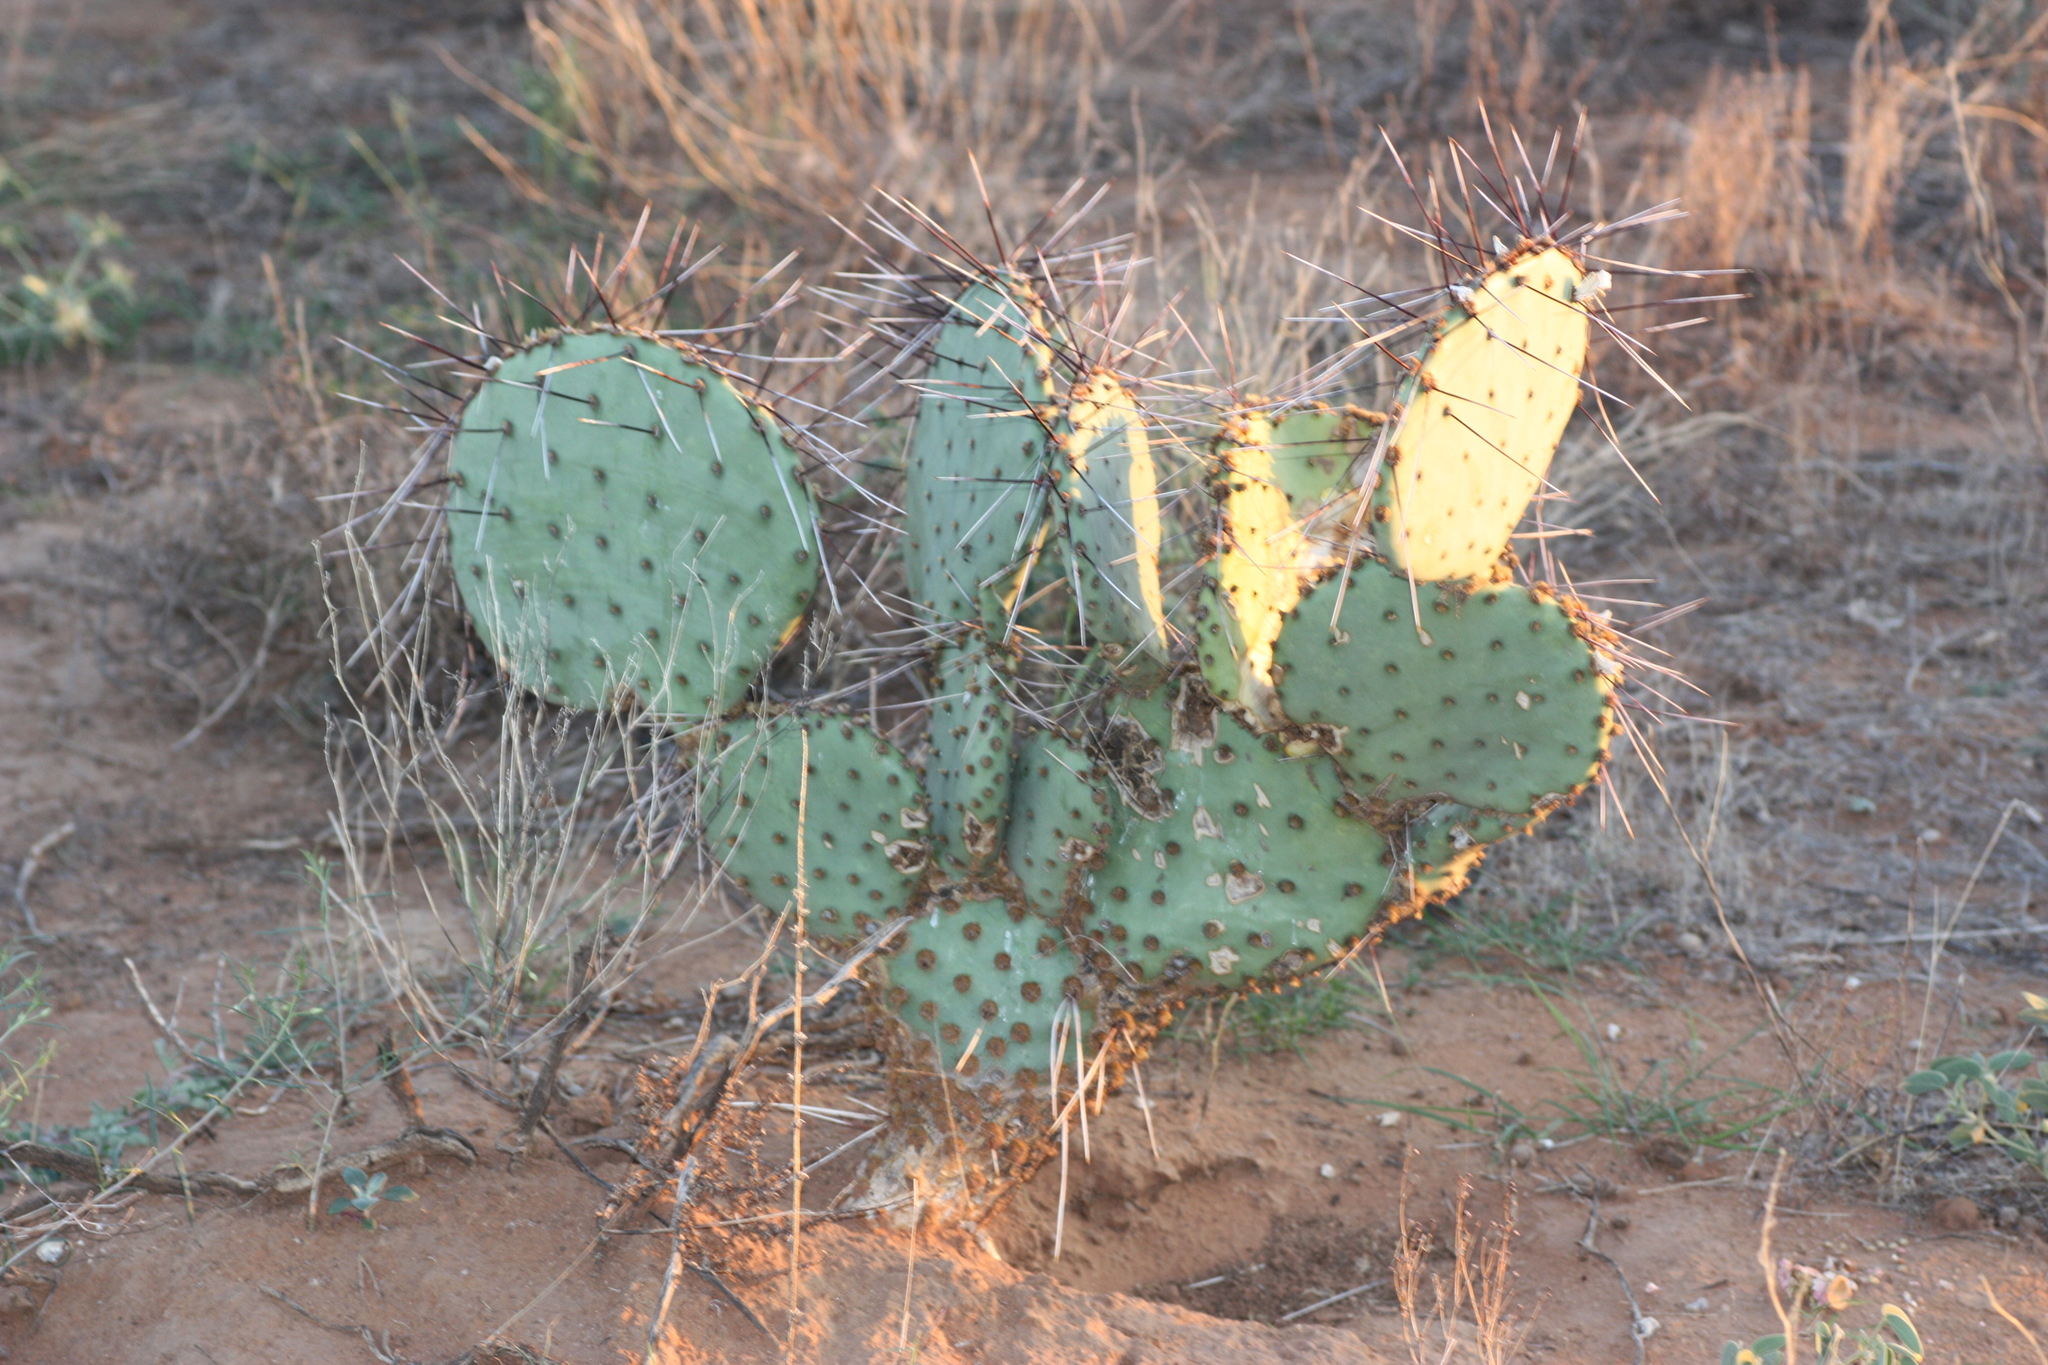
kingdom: Plantae
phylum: Tracheophyta
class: Magnoliopsida
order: Caryophyllales
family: Cactaceae
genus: Opuntia
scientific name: Opuntia macrocentra
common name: Purple prickly-pear
